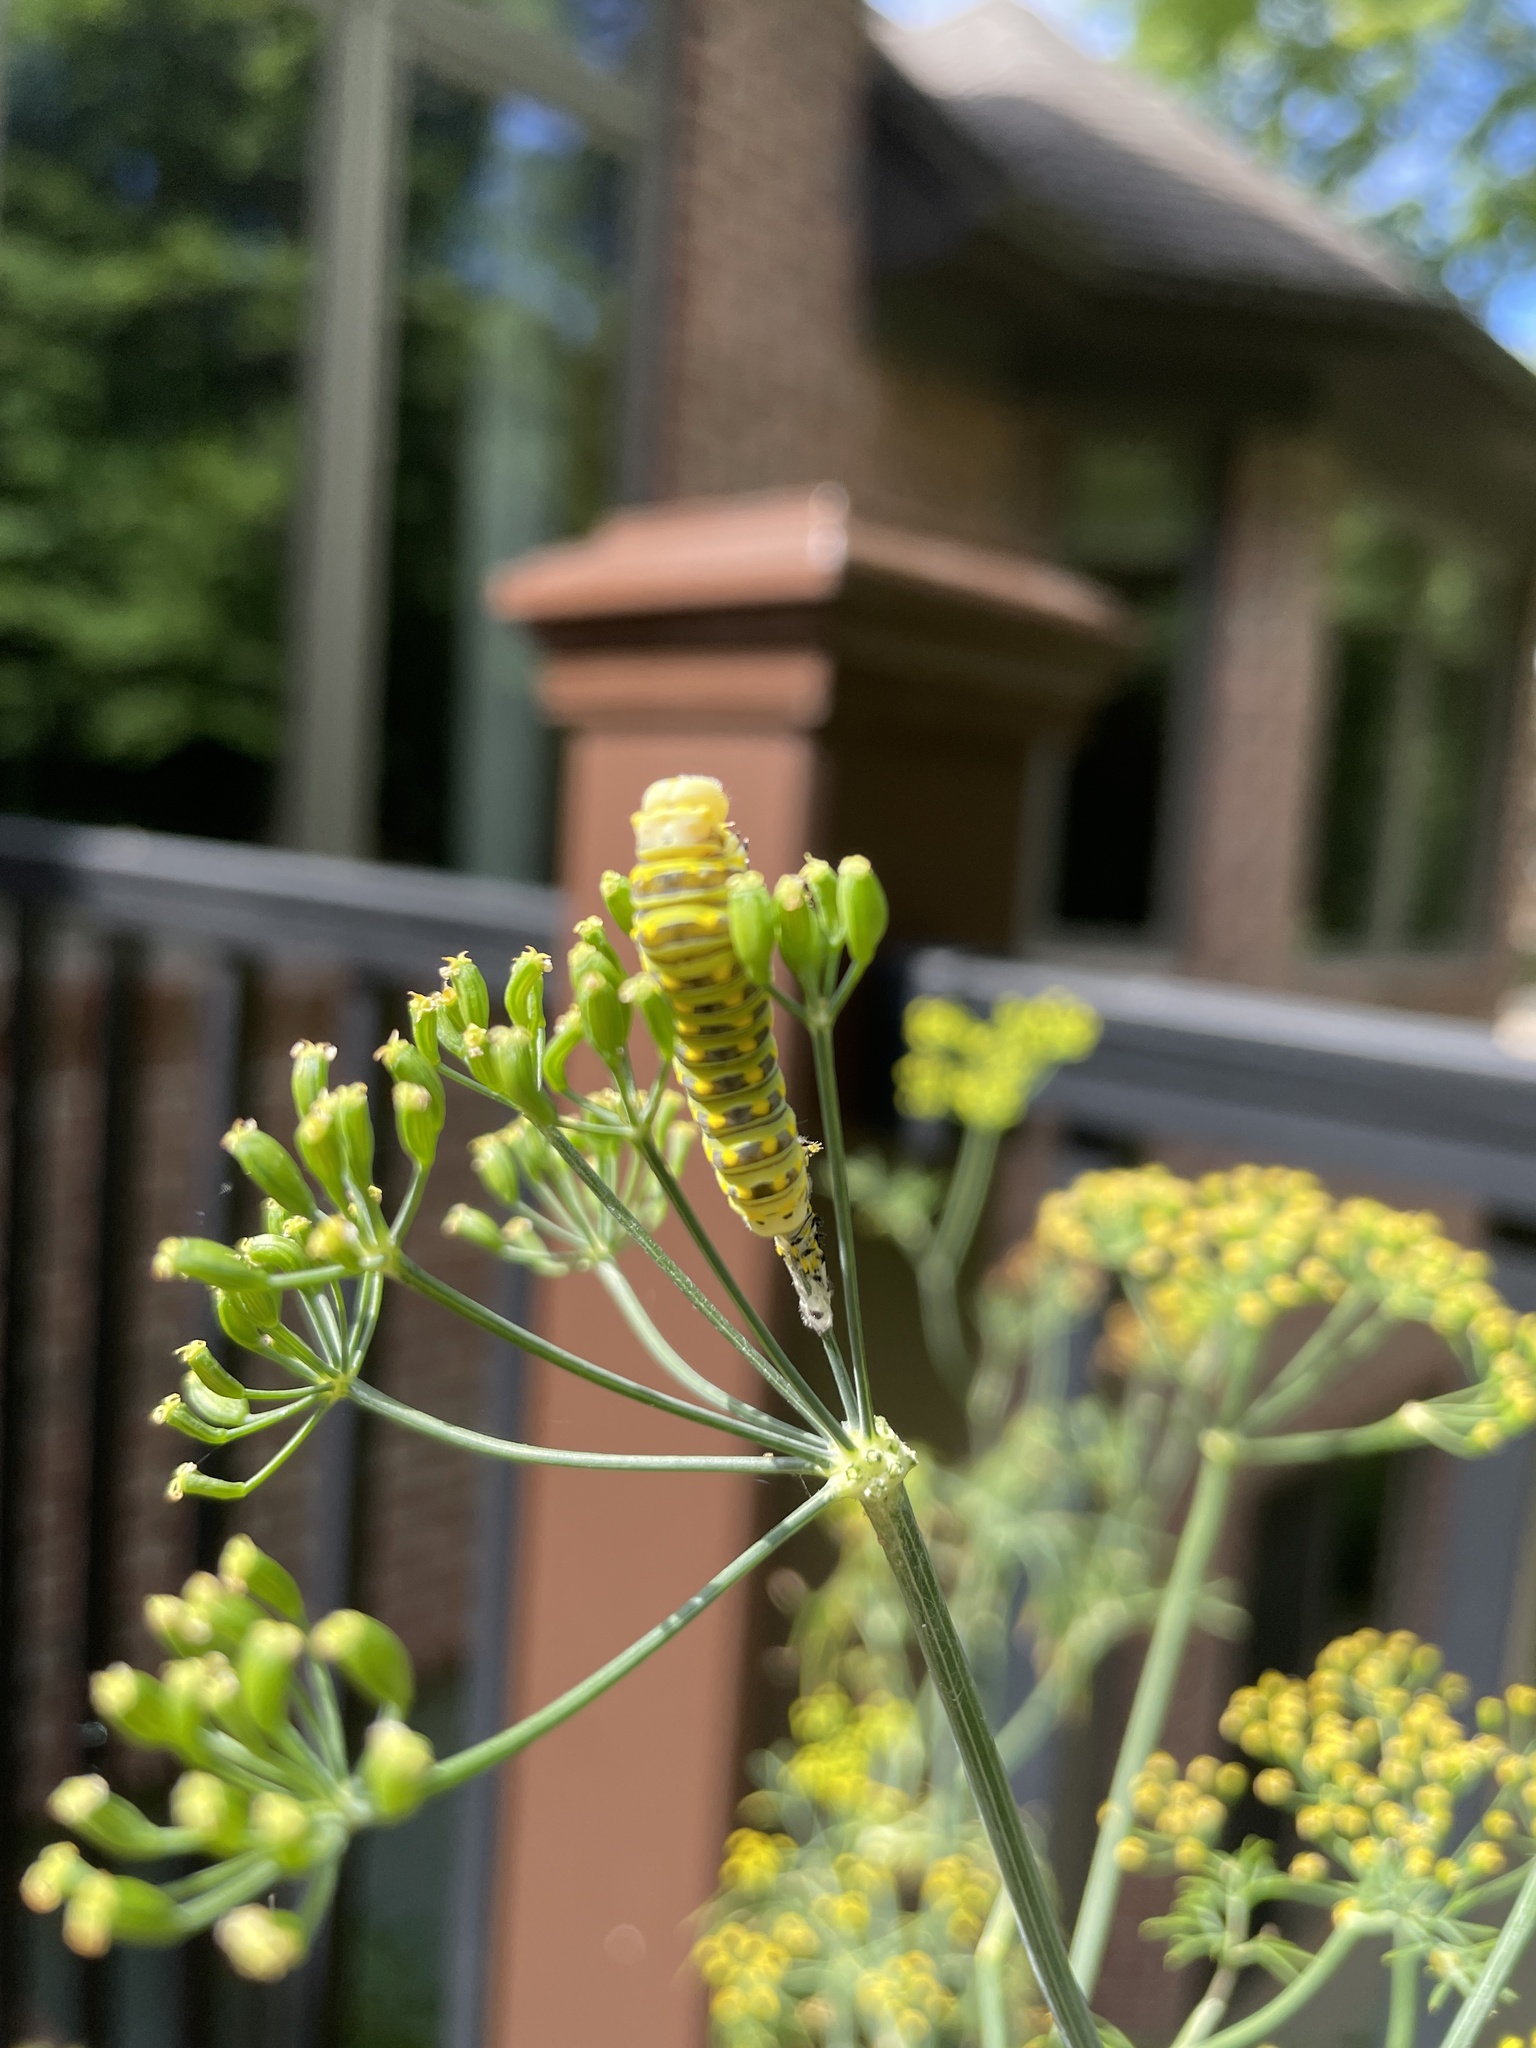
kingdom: Animalia
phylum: Arthropoda
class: Insecta
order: Lepidoptera
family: Papilionidae
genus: Papilio
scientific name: Papilio polyxenes
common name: Black swallowtail
